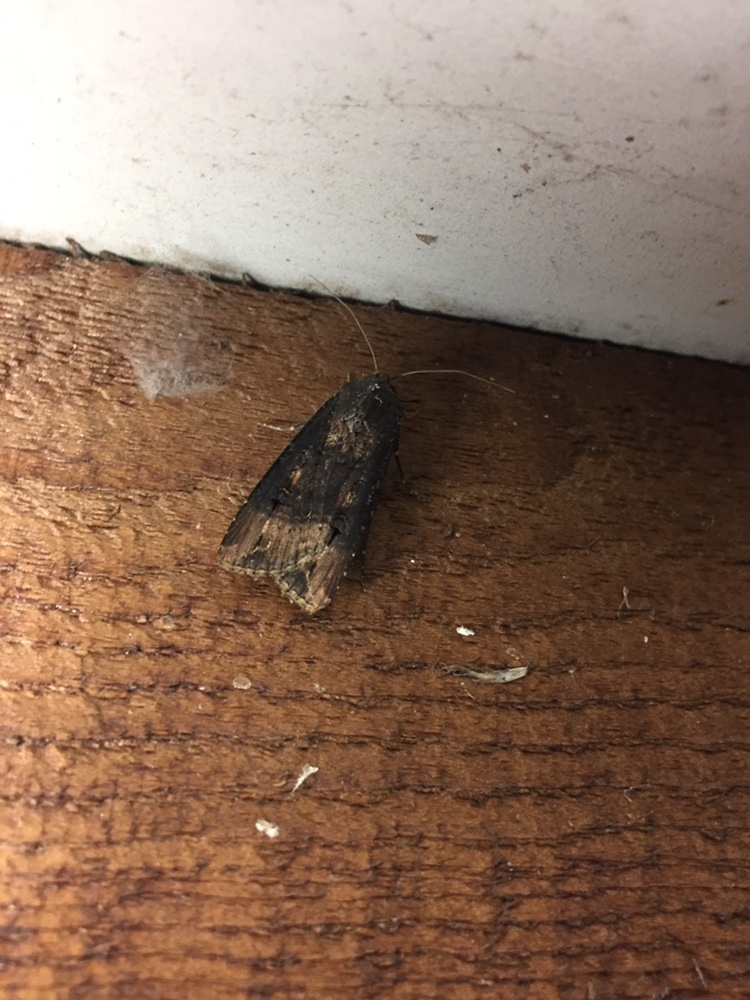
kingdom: Animalia
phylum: Arthropoda
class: Insecta
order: Lepidoptera
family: Noctuidae
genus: Agrotis
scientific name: Agrotis ipsilon
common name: Dark sword-grass
